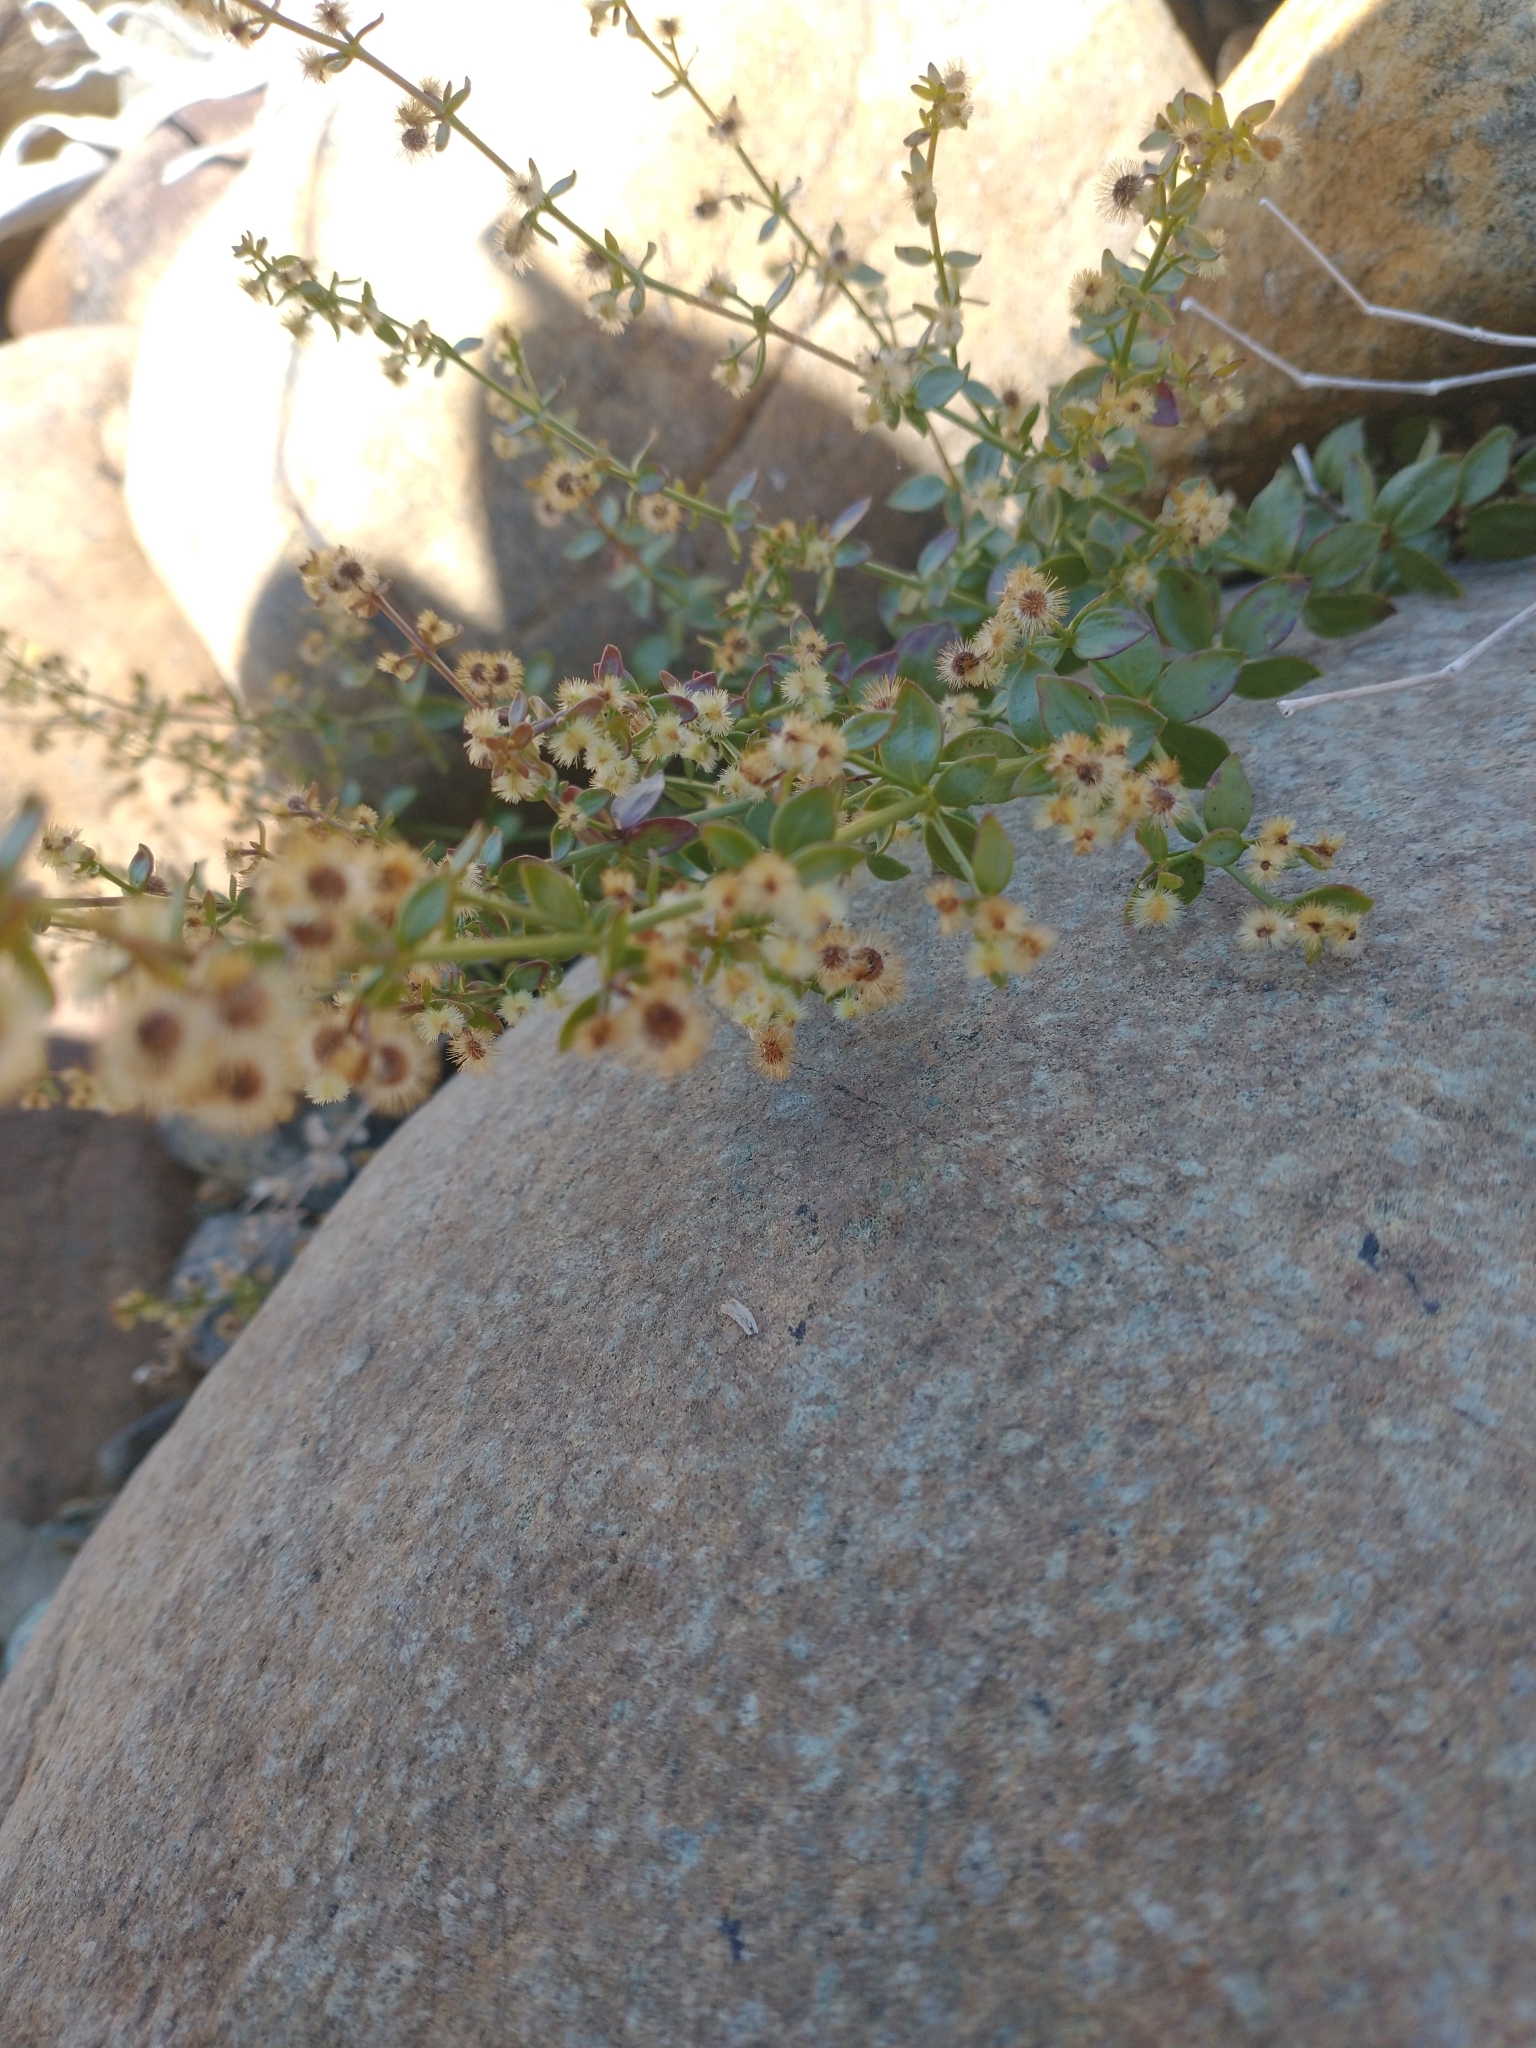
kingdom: Plantae
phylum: Tracheophyta
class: Magnoliopsida
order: Gentianales
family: Rubiaceae
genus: Galium
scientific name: Galium glabrescens
